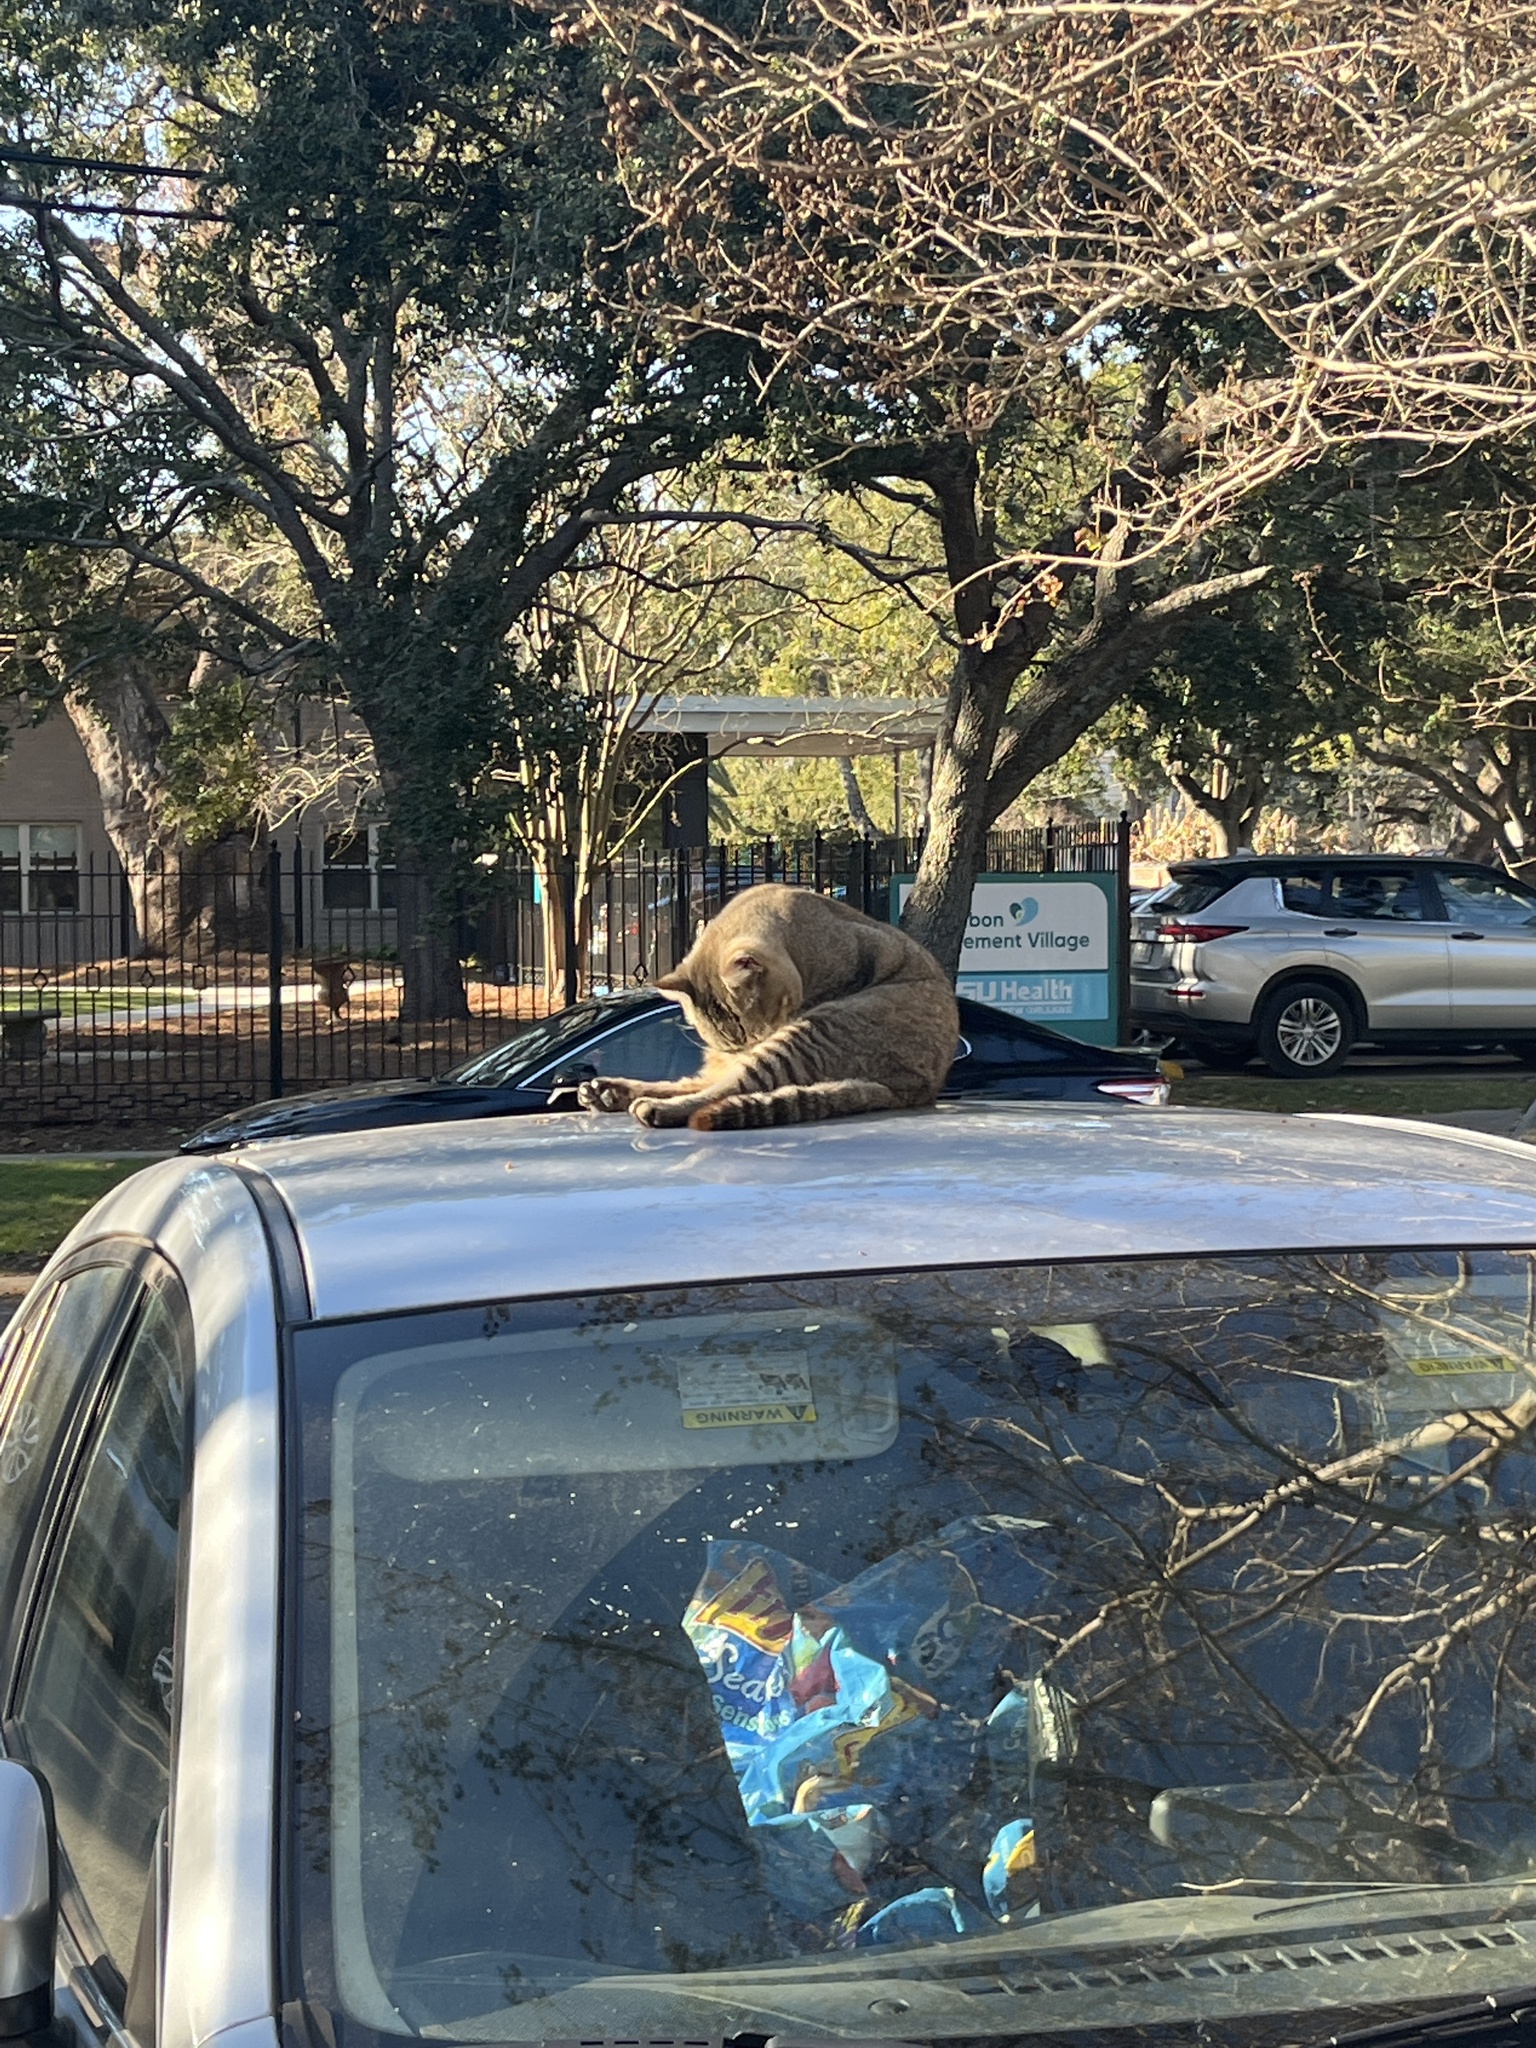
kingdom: Animalia
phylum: Chordata
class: Mammalia
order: Carnivora
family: Felidae
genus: Felis
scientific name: Felis catus
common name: Domestic cat
